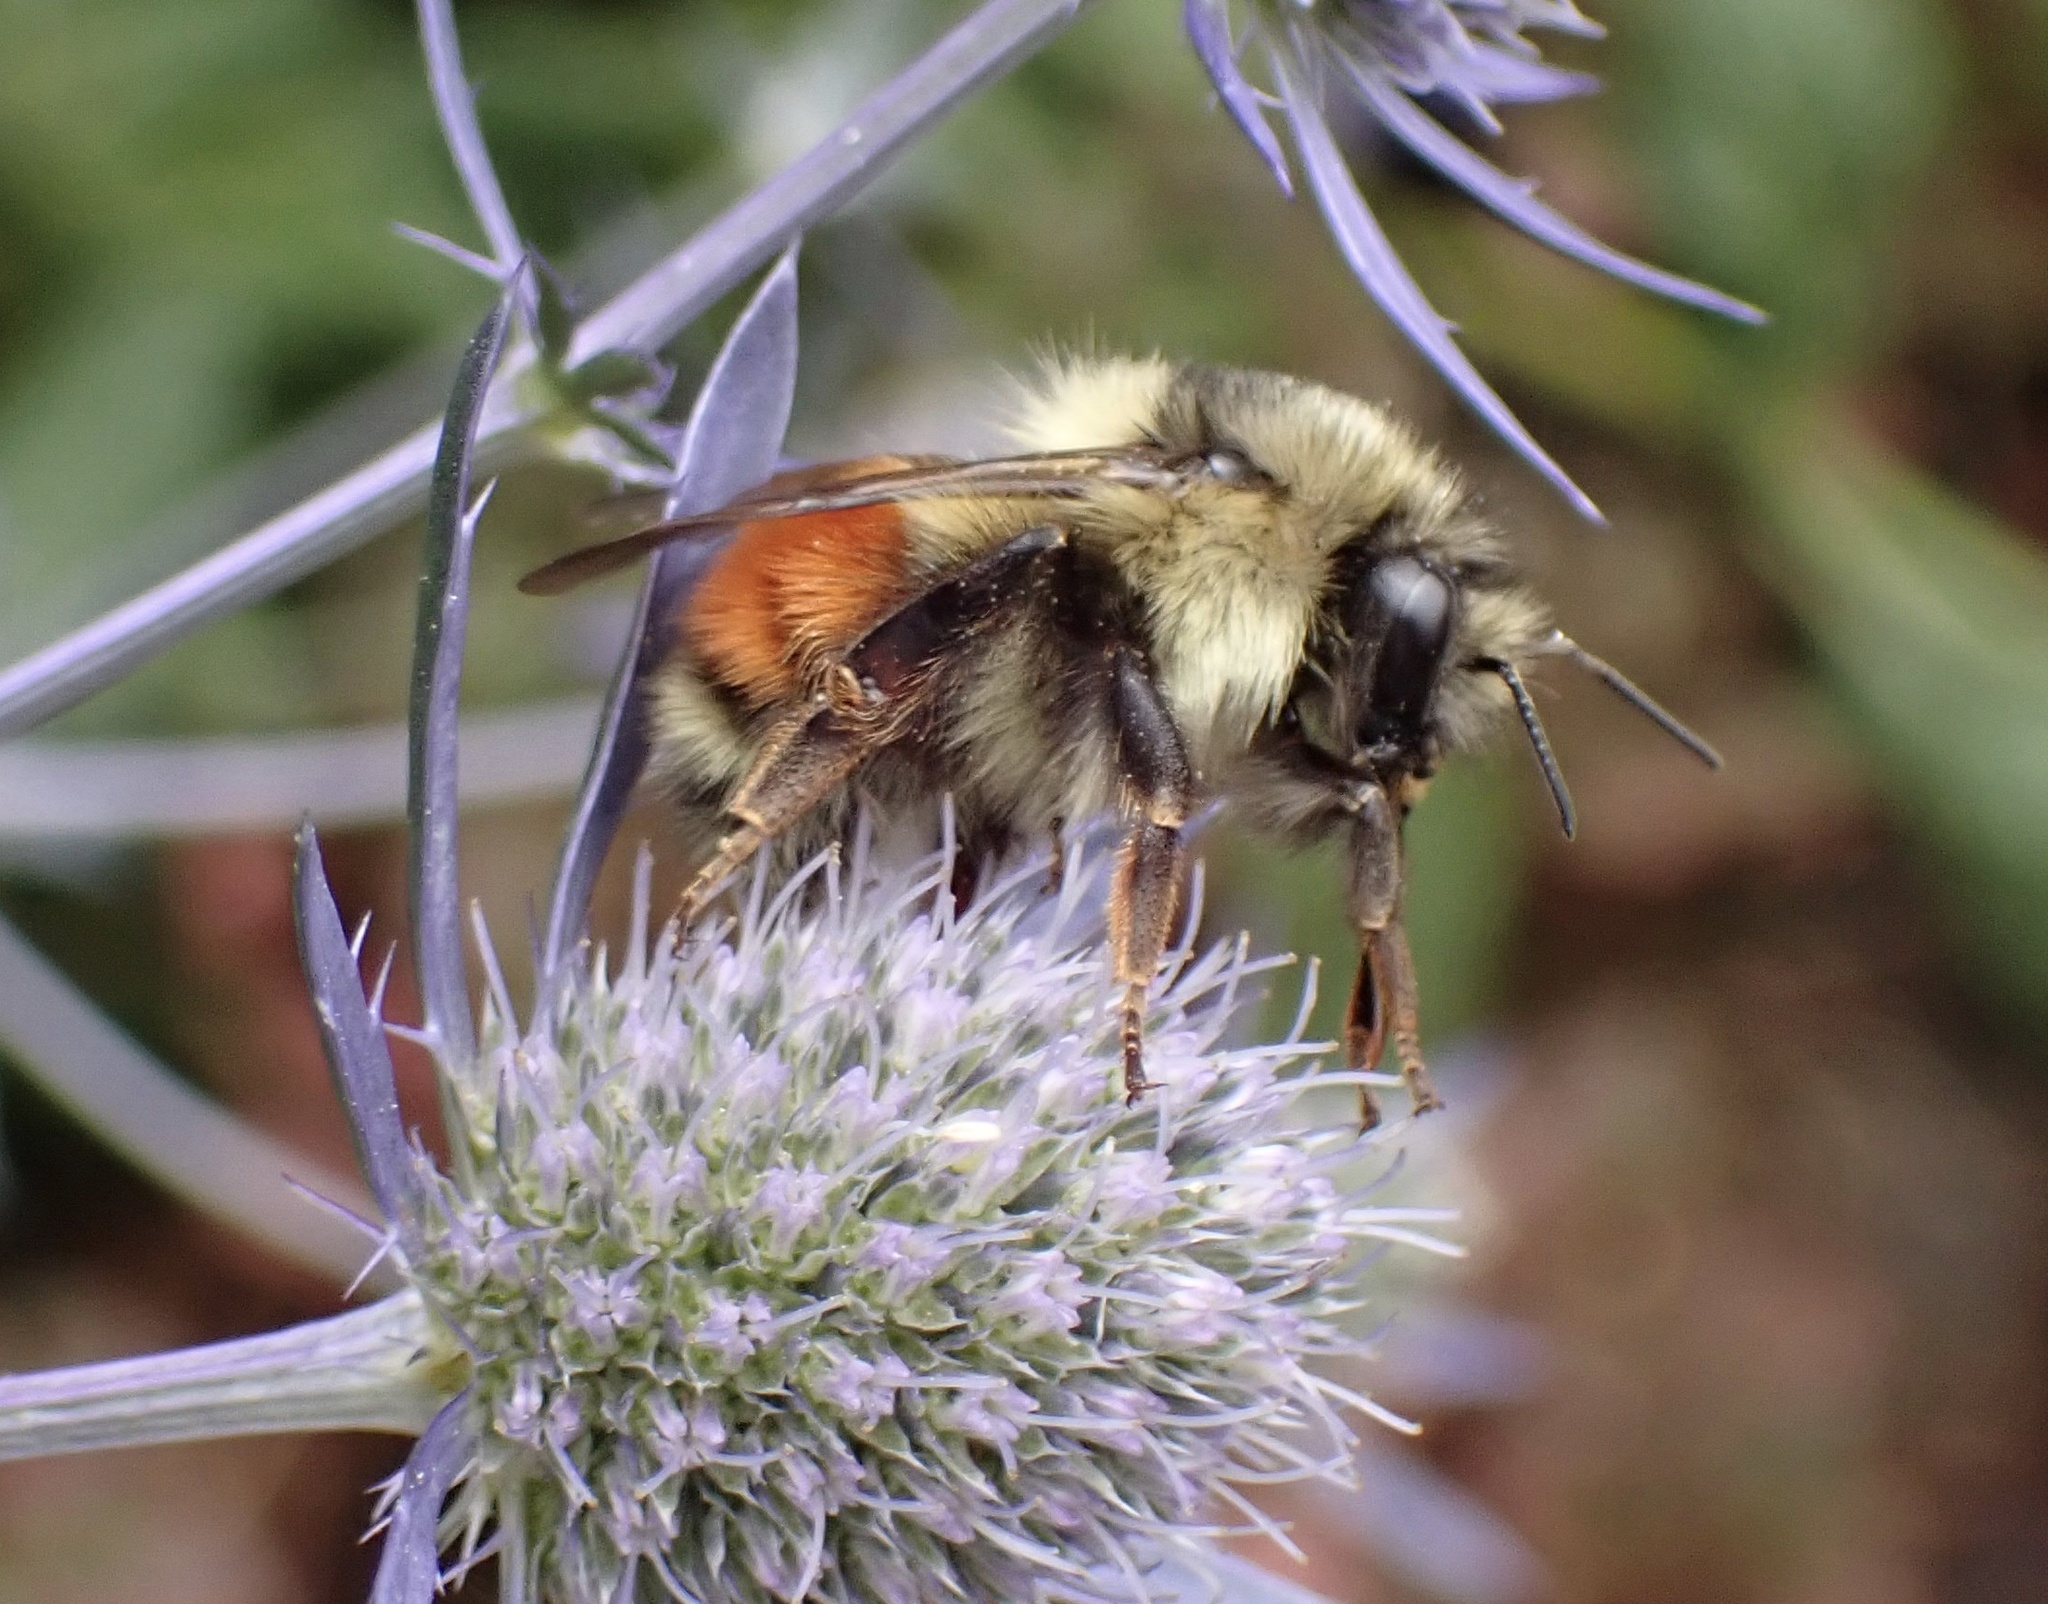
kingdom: Animalia
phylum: Arthropoda
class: Insecta
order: Hymenoptera
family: Apidae
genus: Bombus
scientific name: Bombus melanopygus
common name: Black tail bumble bee
